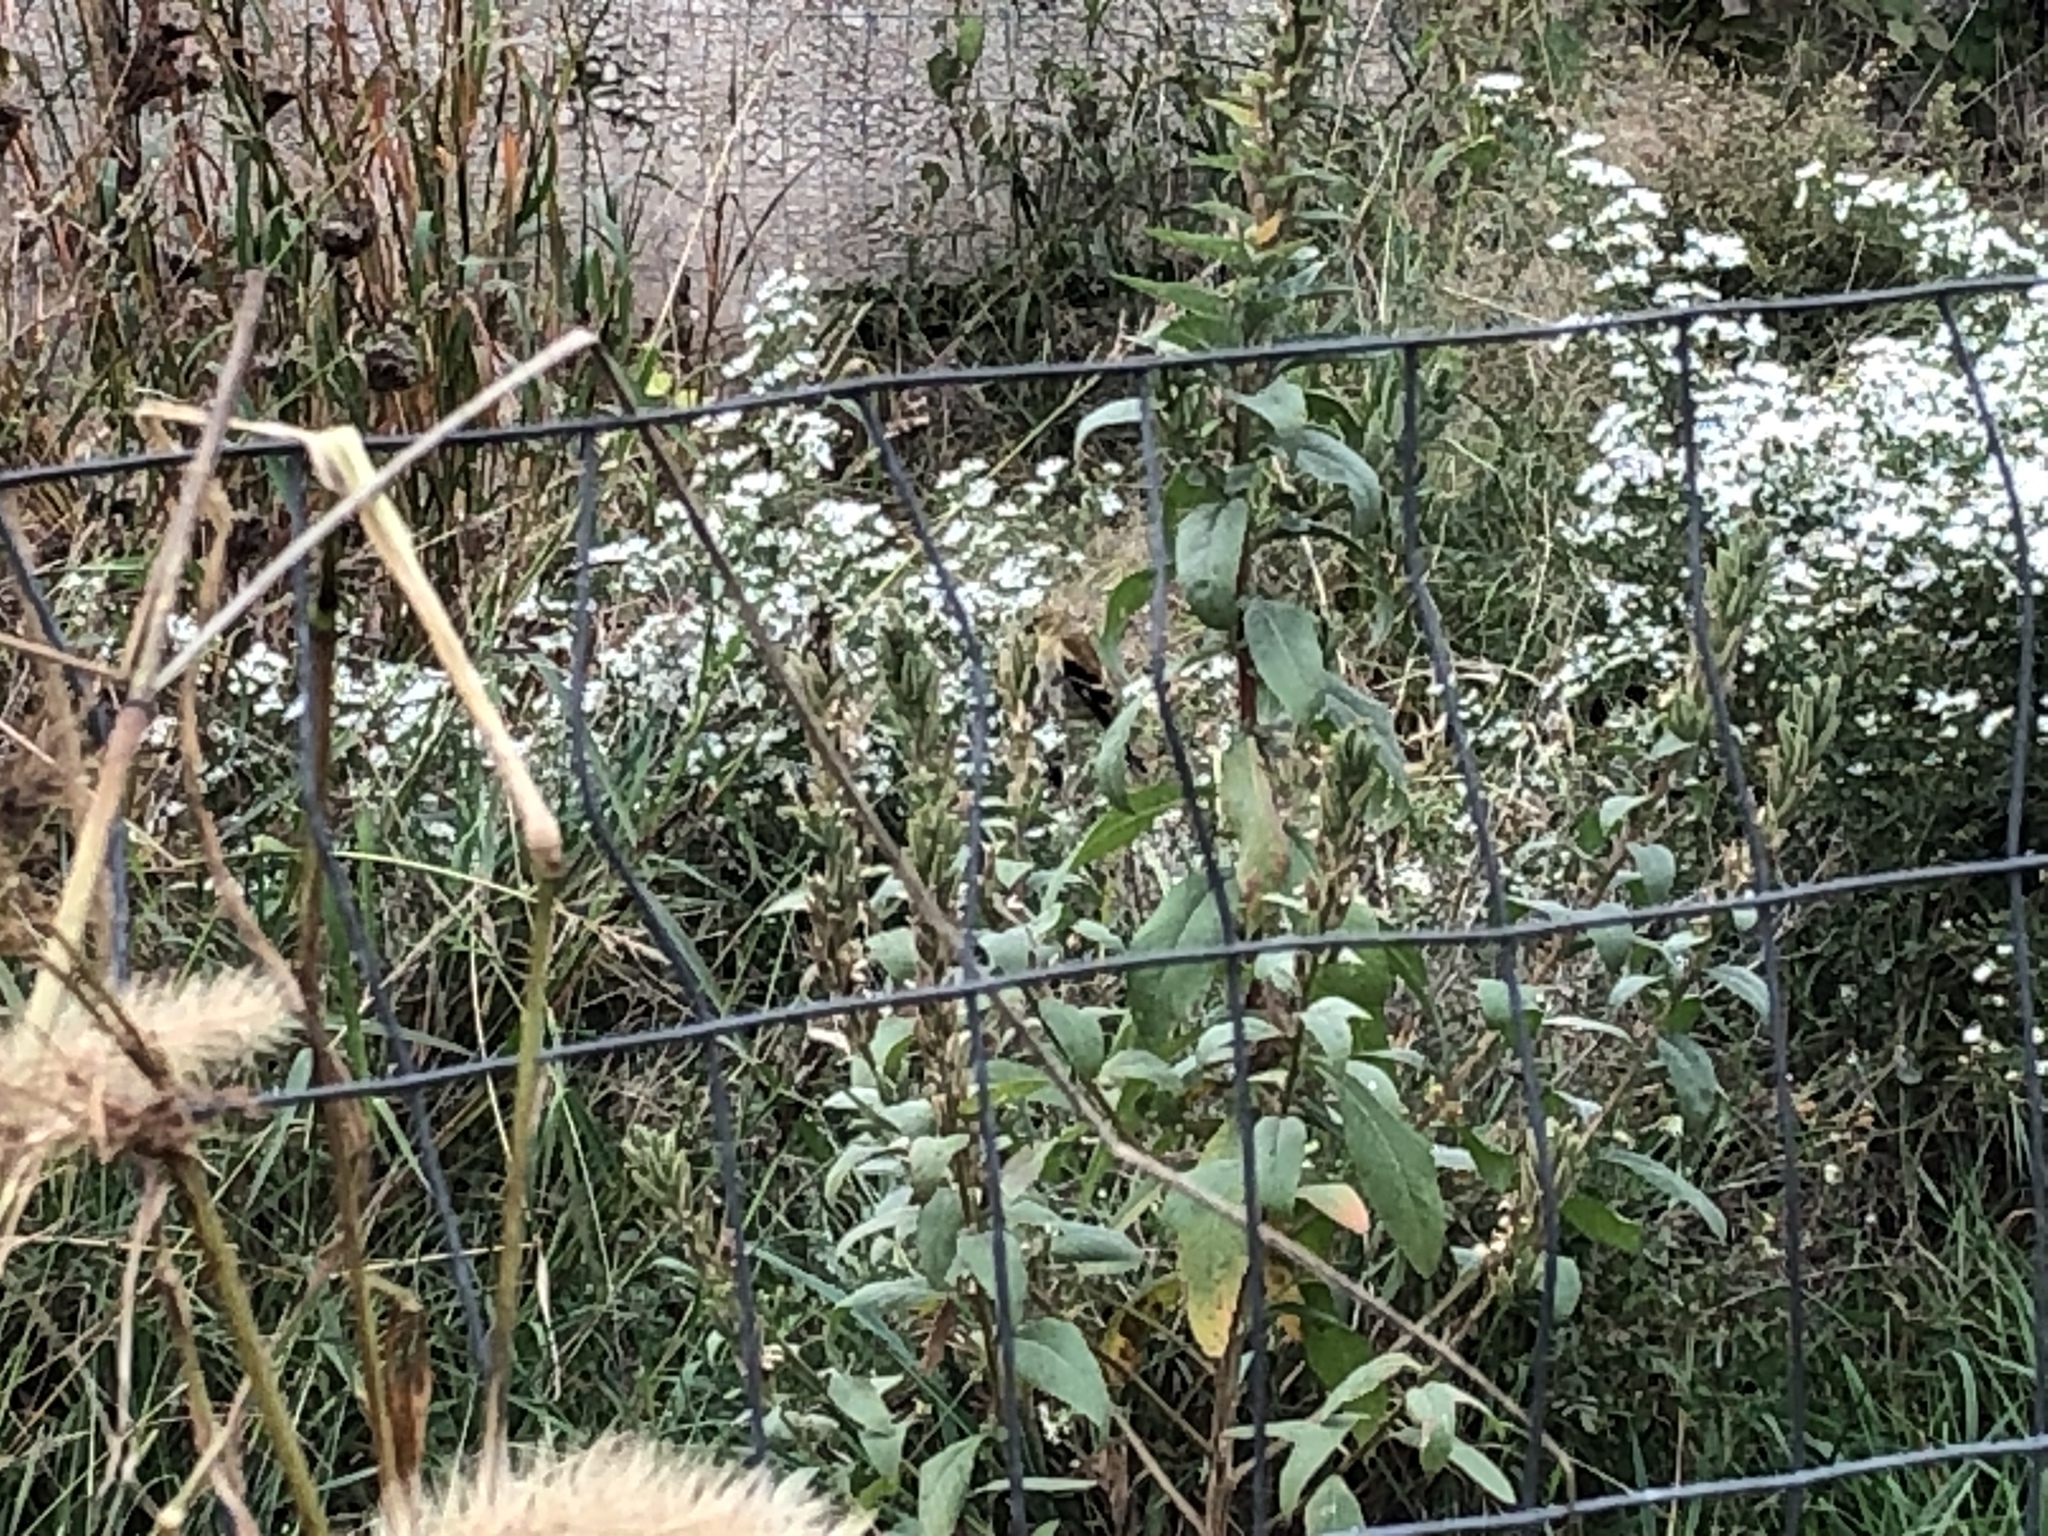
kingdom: Animalia
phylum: Chordata
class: Aves
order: Passeriformes
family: Fringillidae
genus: Spinus
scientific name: Spinus tristis
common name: American goldfinch
